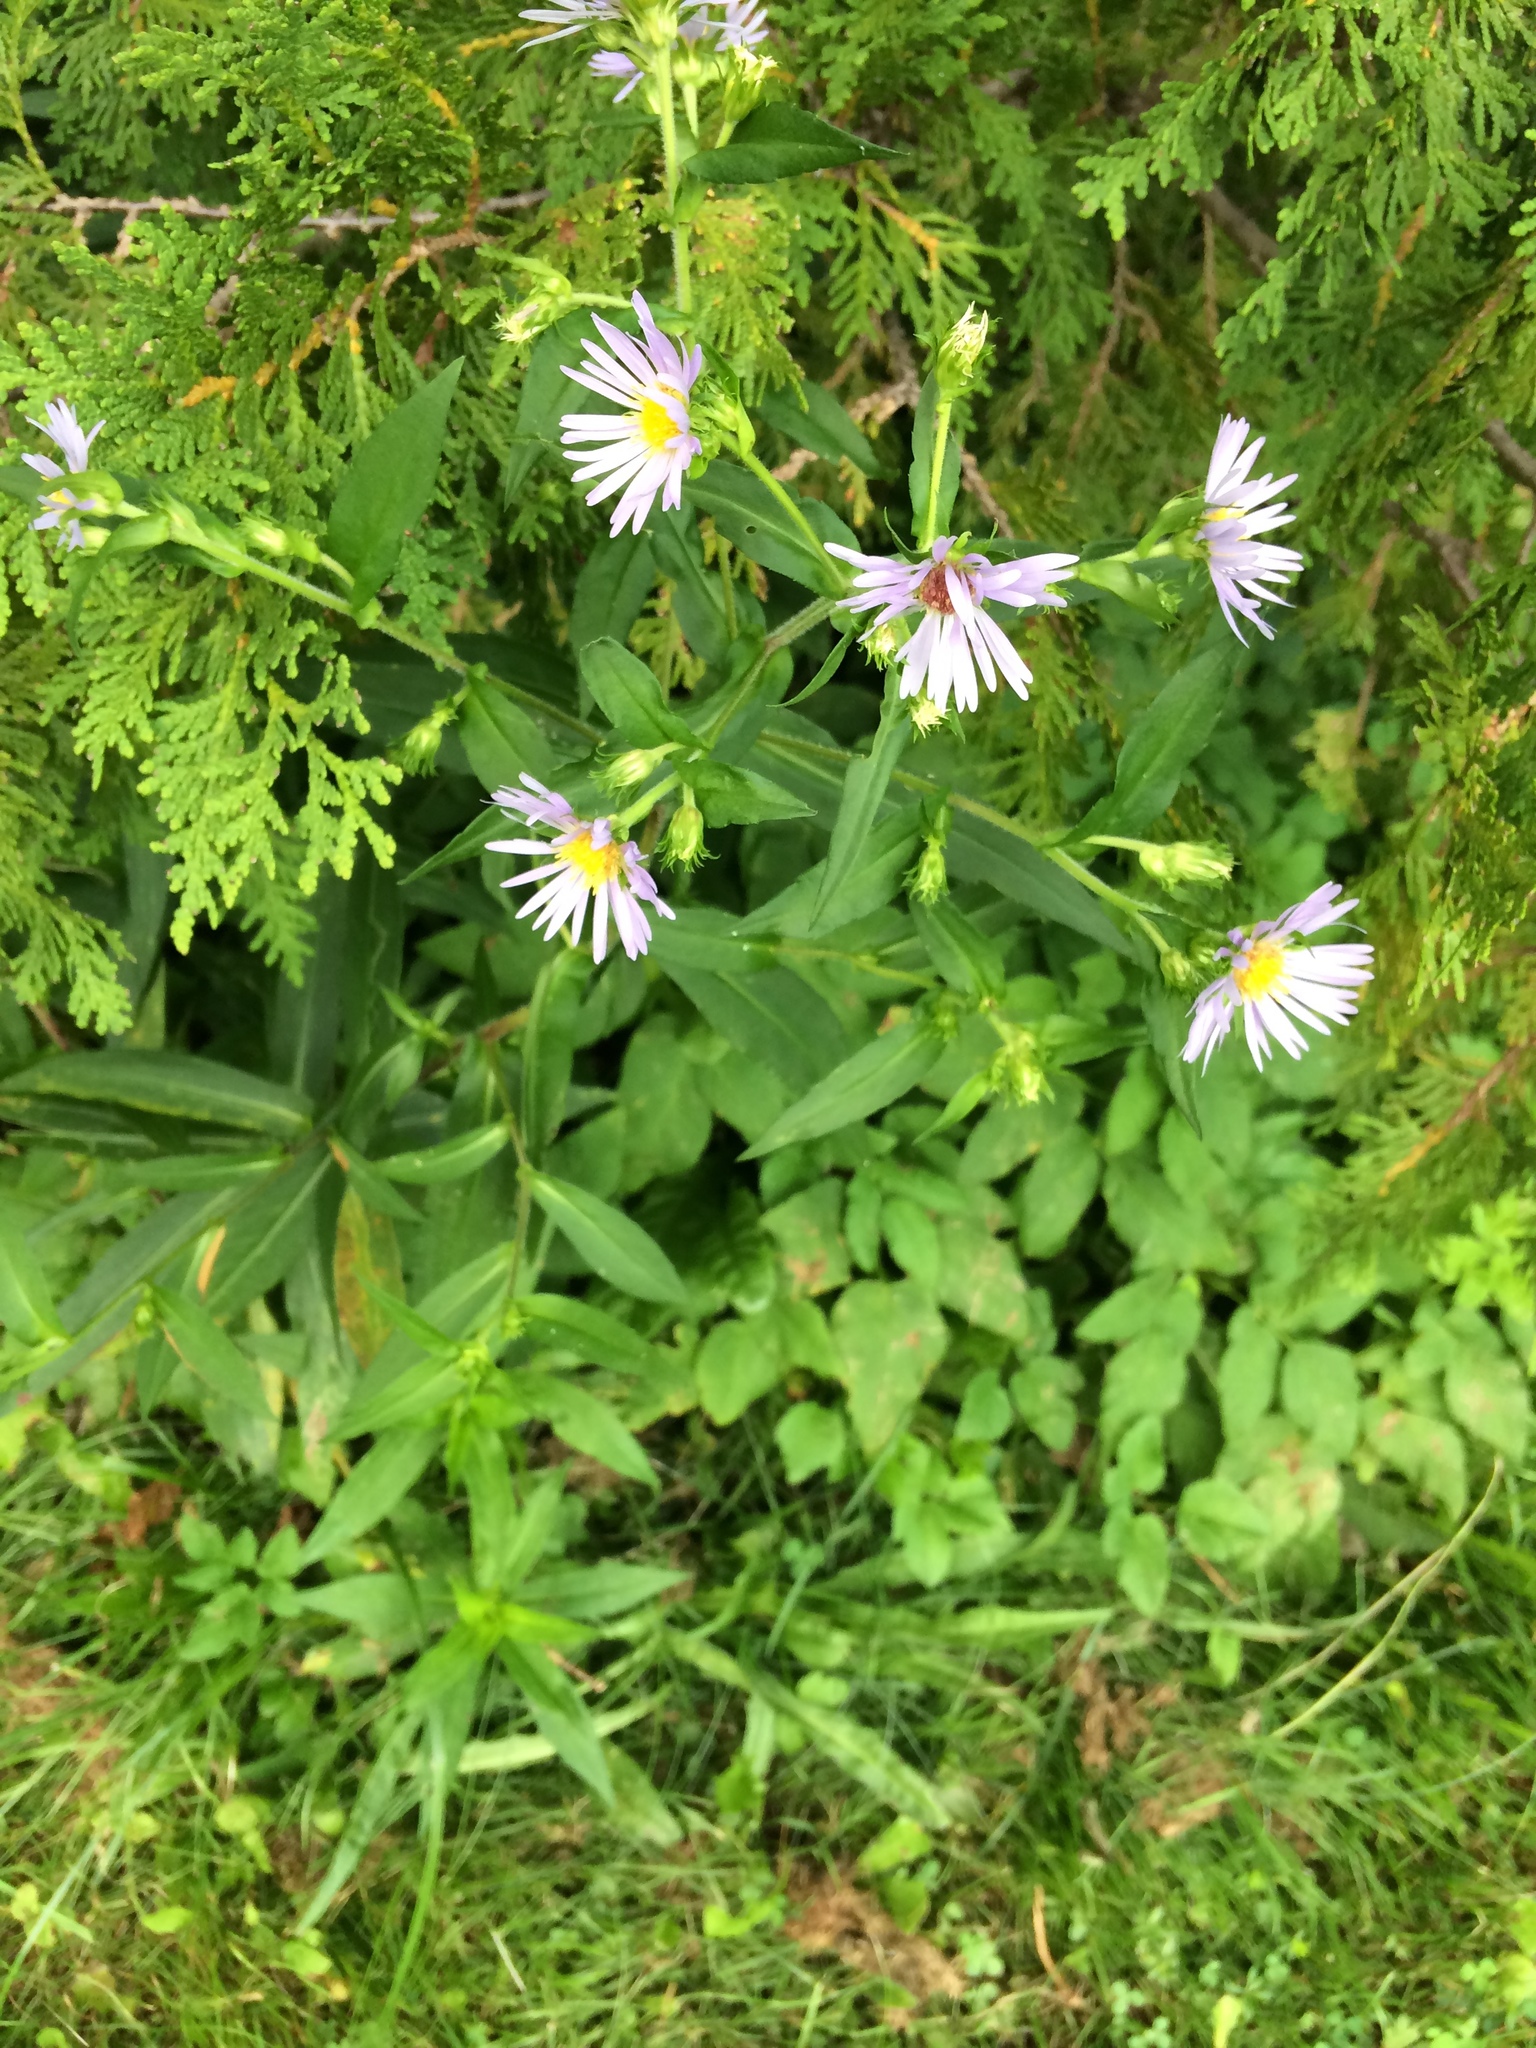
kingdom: Plantae
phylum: Tracheophyta
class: Magnoliopsida
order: Asterales
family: Asteraceae
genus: Symphyotrichum
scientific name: Symphyotrichum puniceum
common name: Bog aster
